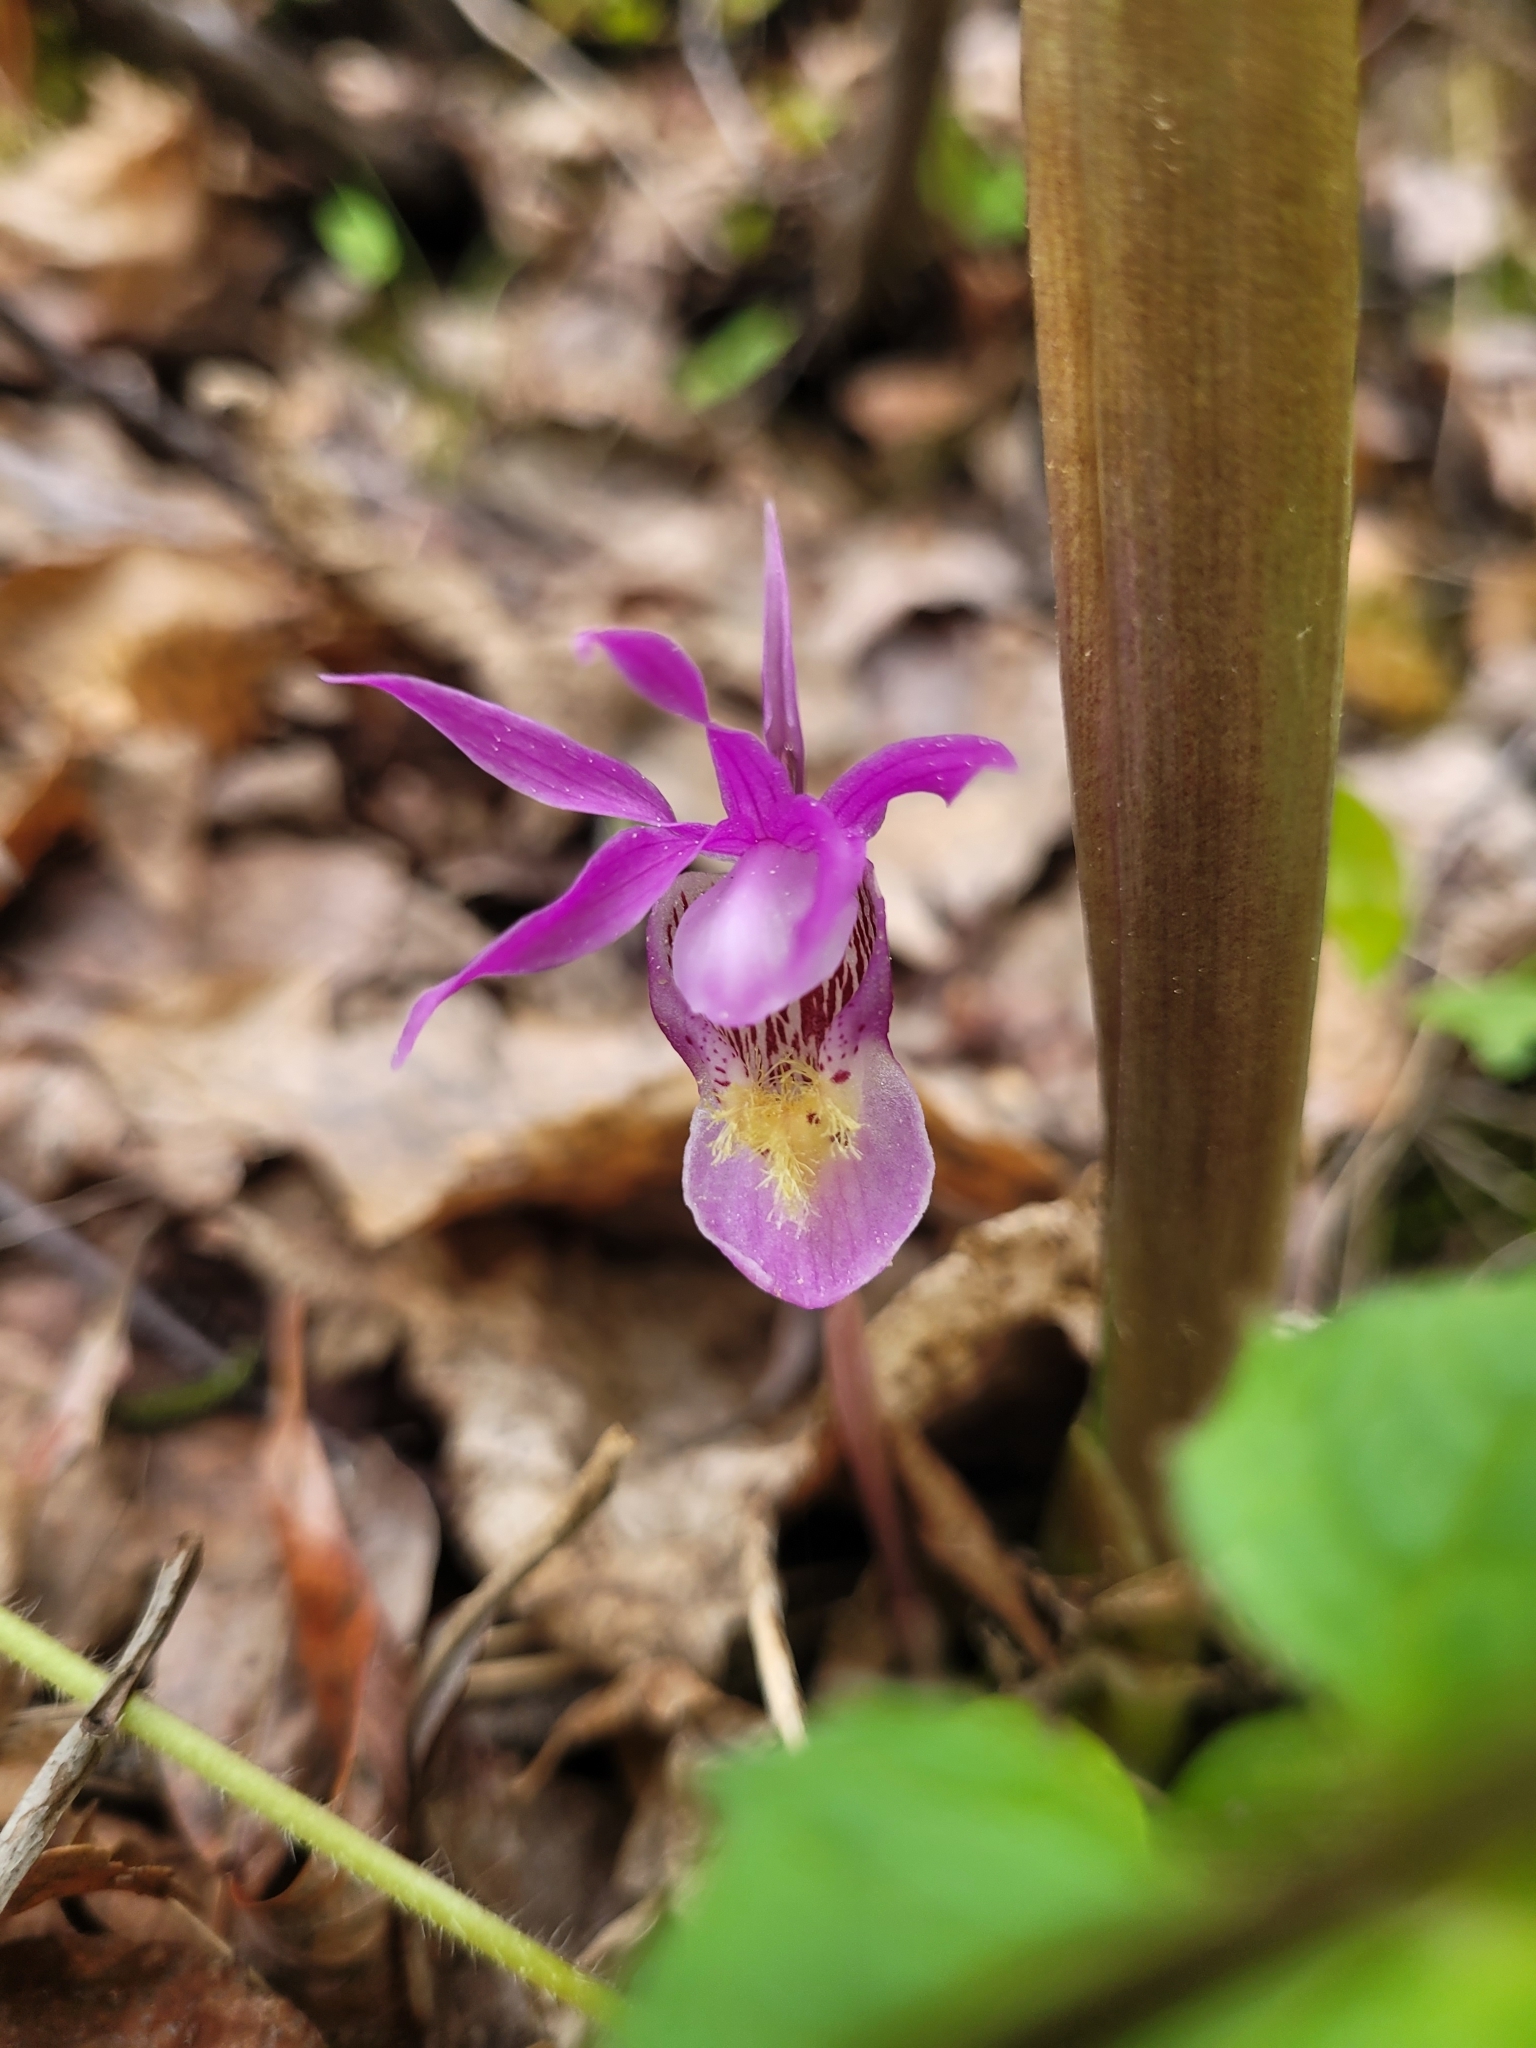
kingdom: Plantae
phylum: Tracheophyta
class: Liliopsida
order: Asparagales
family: Orchidaceae
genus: Calypso
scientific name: Calypso bulbosa
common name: Calypso
